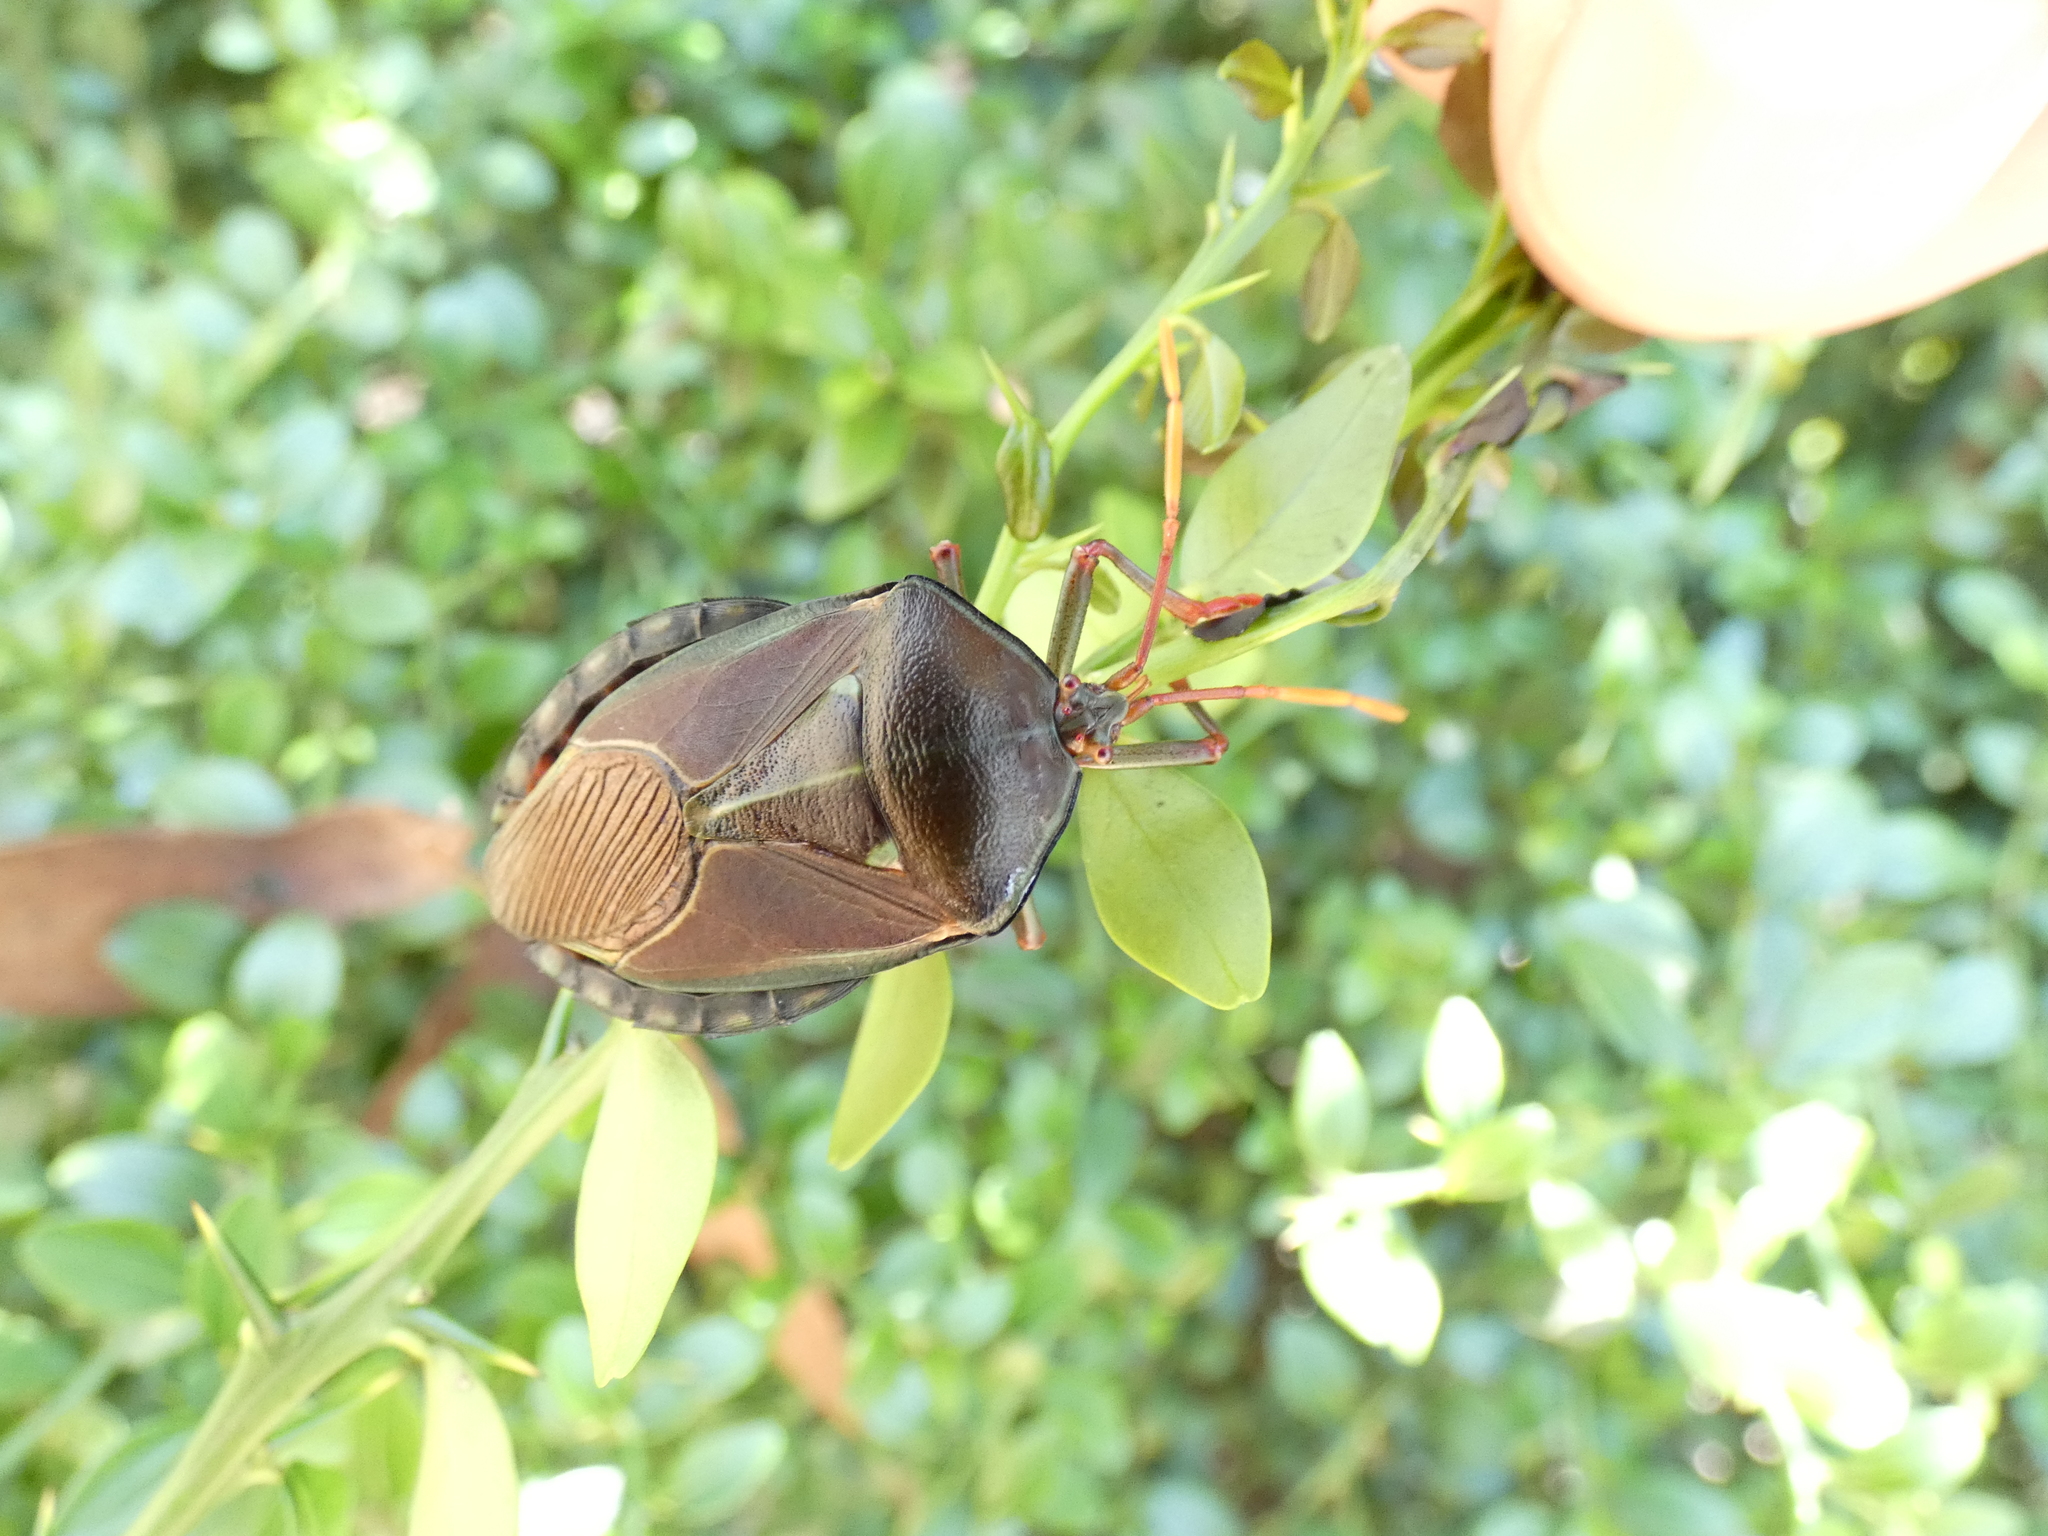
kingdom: Animalia
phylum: Arthropoda
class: Insecta
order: Hemiptera
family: Tessaratomidae
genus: Musgraveia
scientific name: Musgraveia sulciventris
